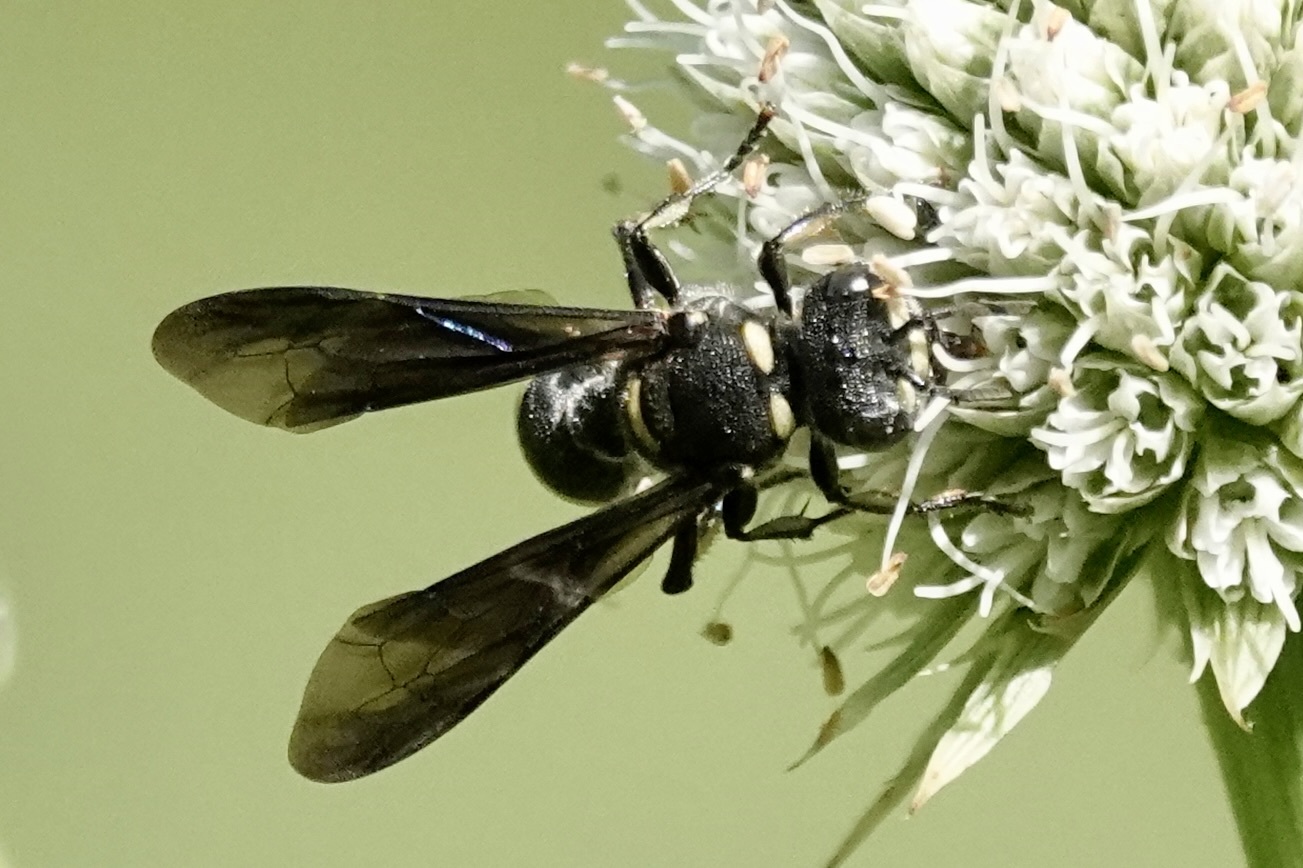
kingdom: Animalia
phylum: Arthropoda
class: Insecta
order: Hymenoptera
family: Crabronidae
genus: Cerceris
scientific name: Cerceris fumipennis
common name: Smokey-winged beetle bandit wasp
